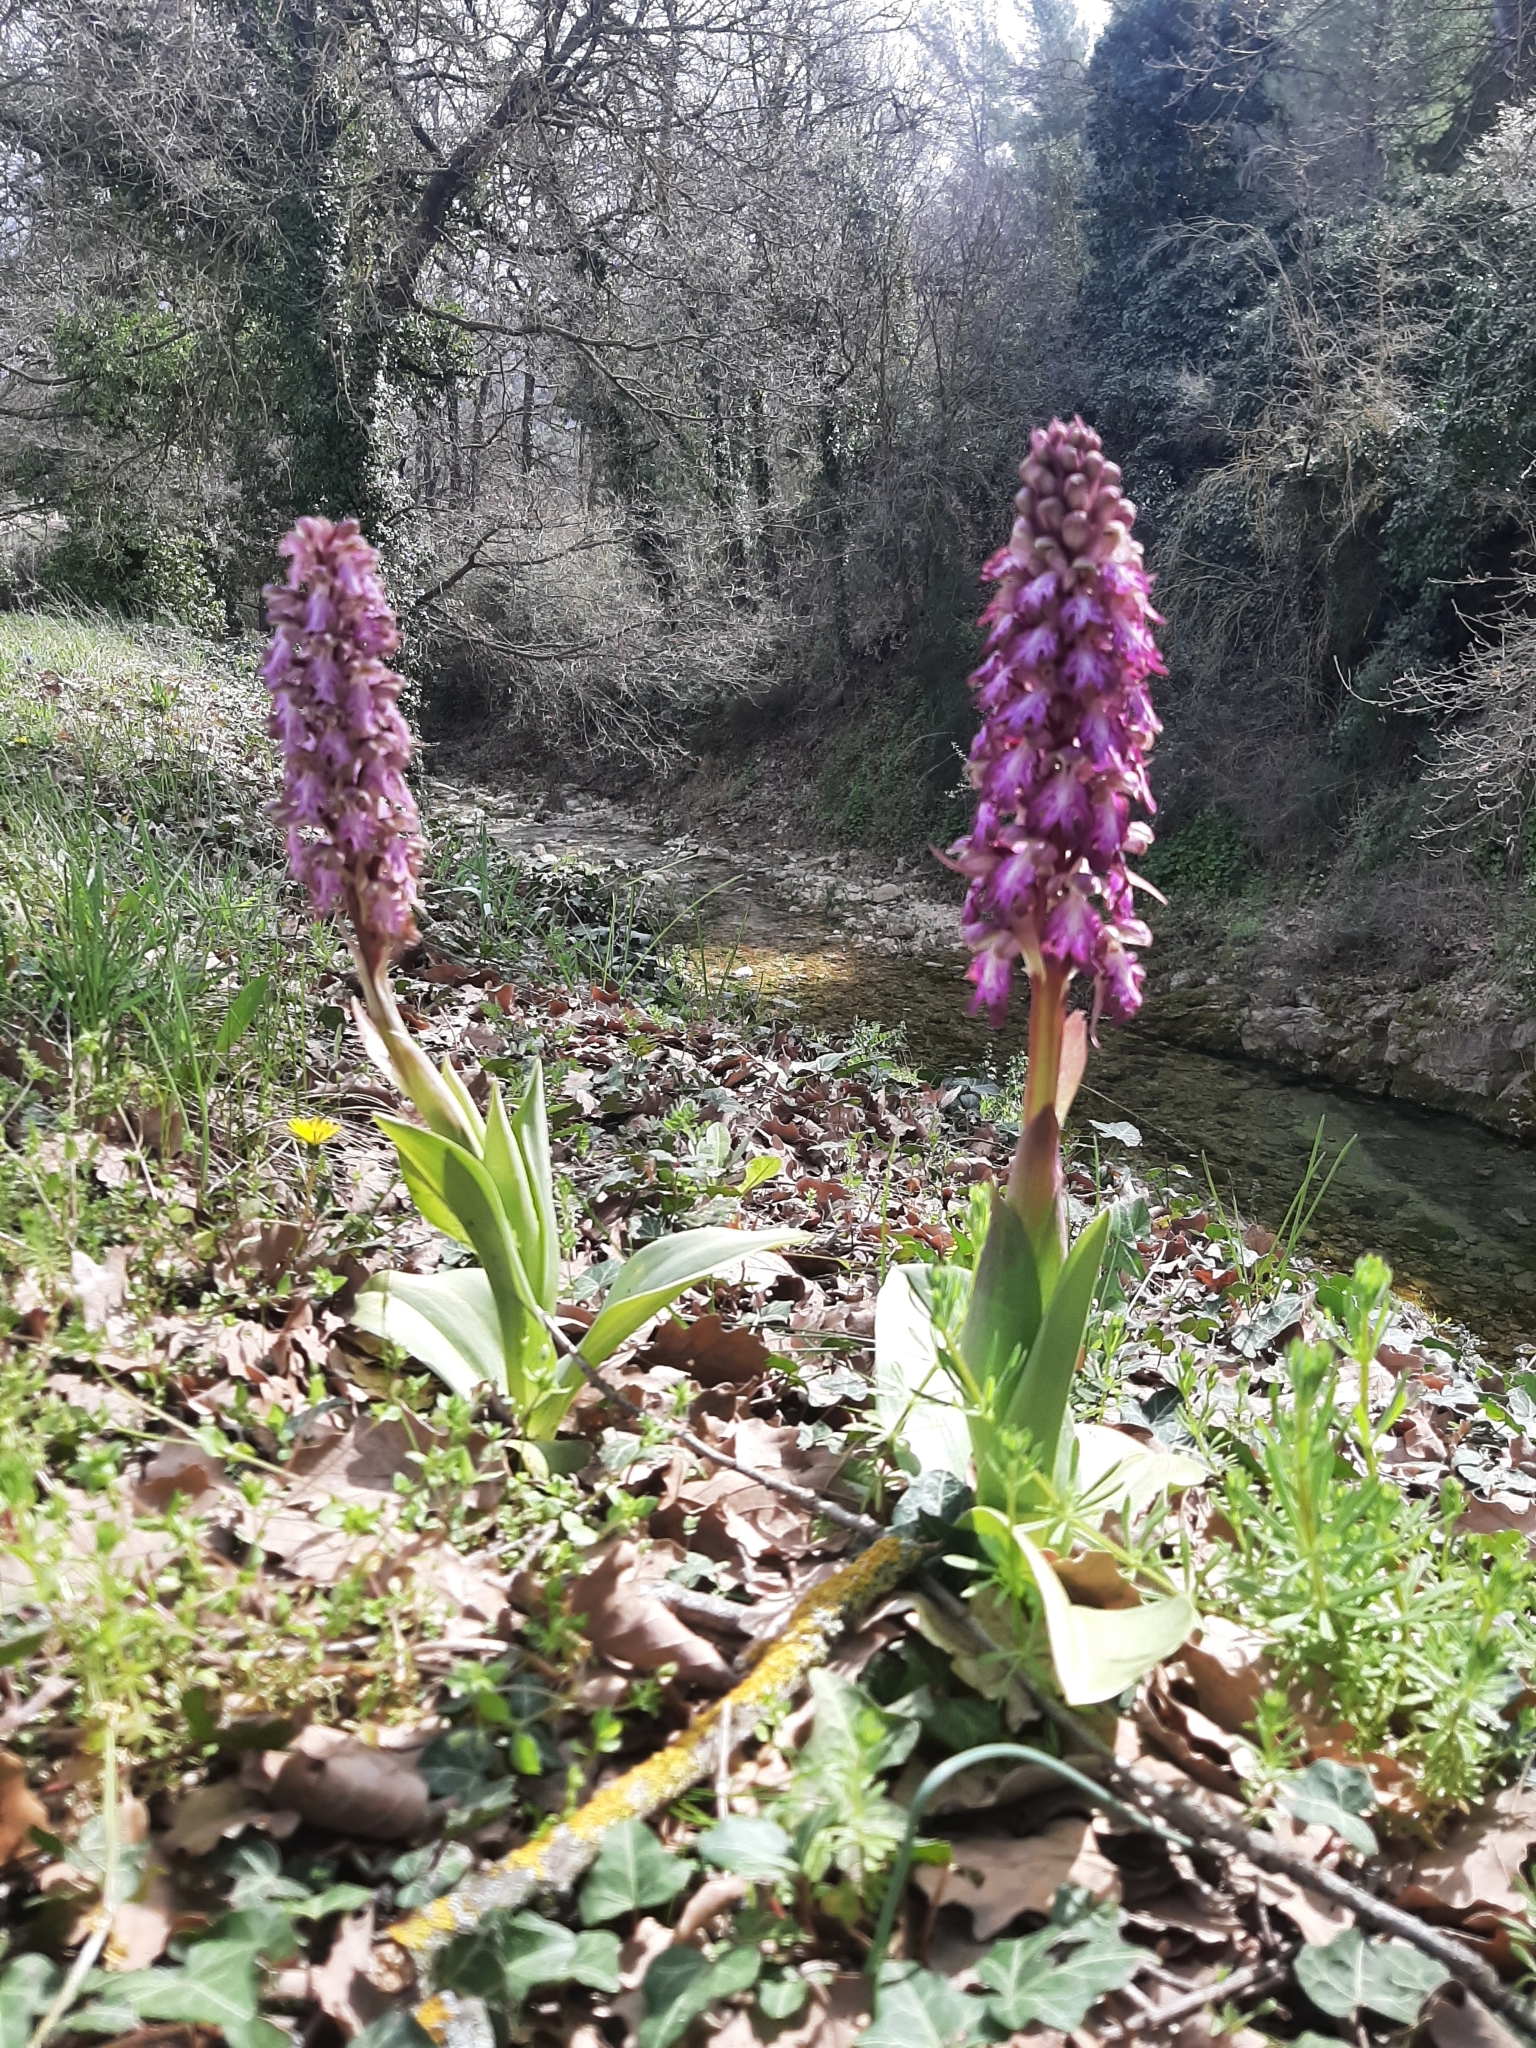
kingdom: Plantae
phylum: Tracheophyta
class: Liliopsida
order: Asparagales
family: Orchidaceae
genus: Himantoglossum
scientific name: Himantoglossum robertianum
